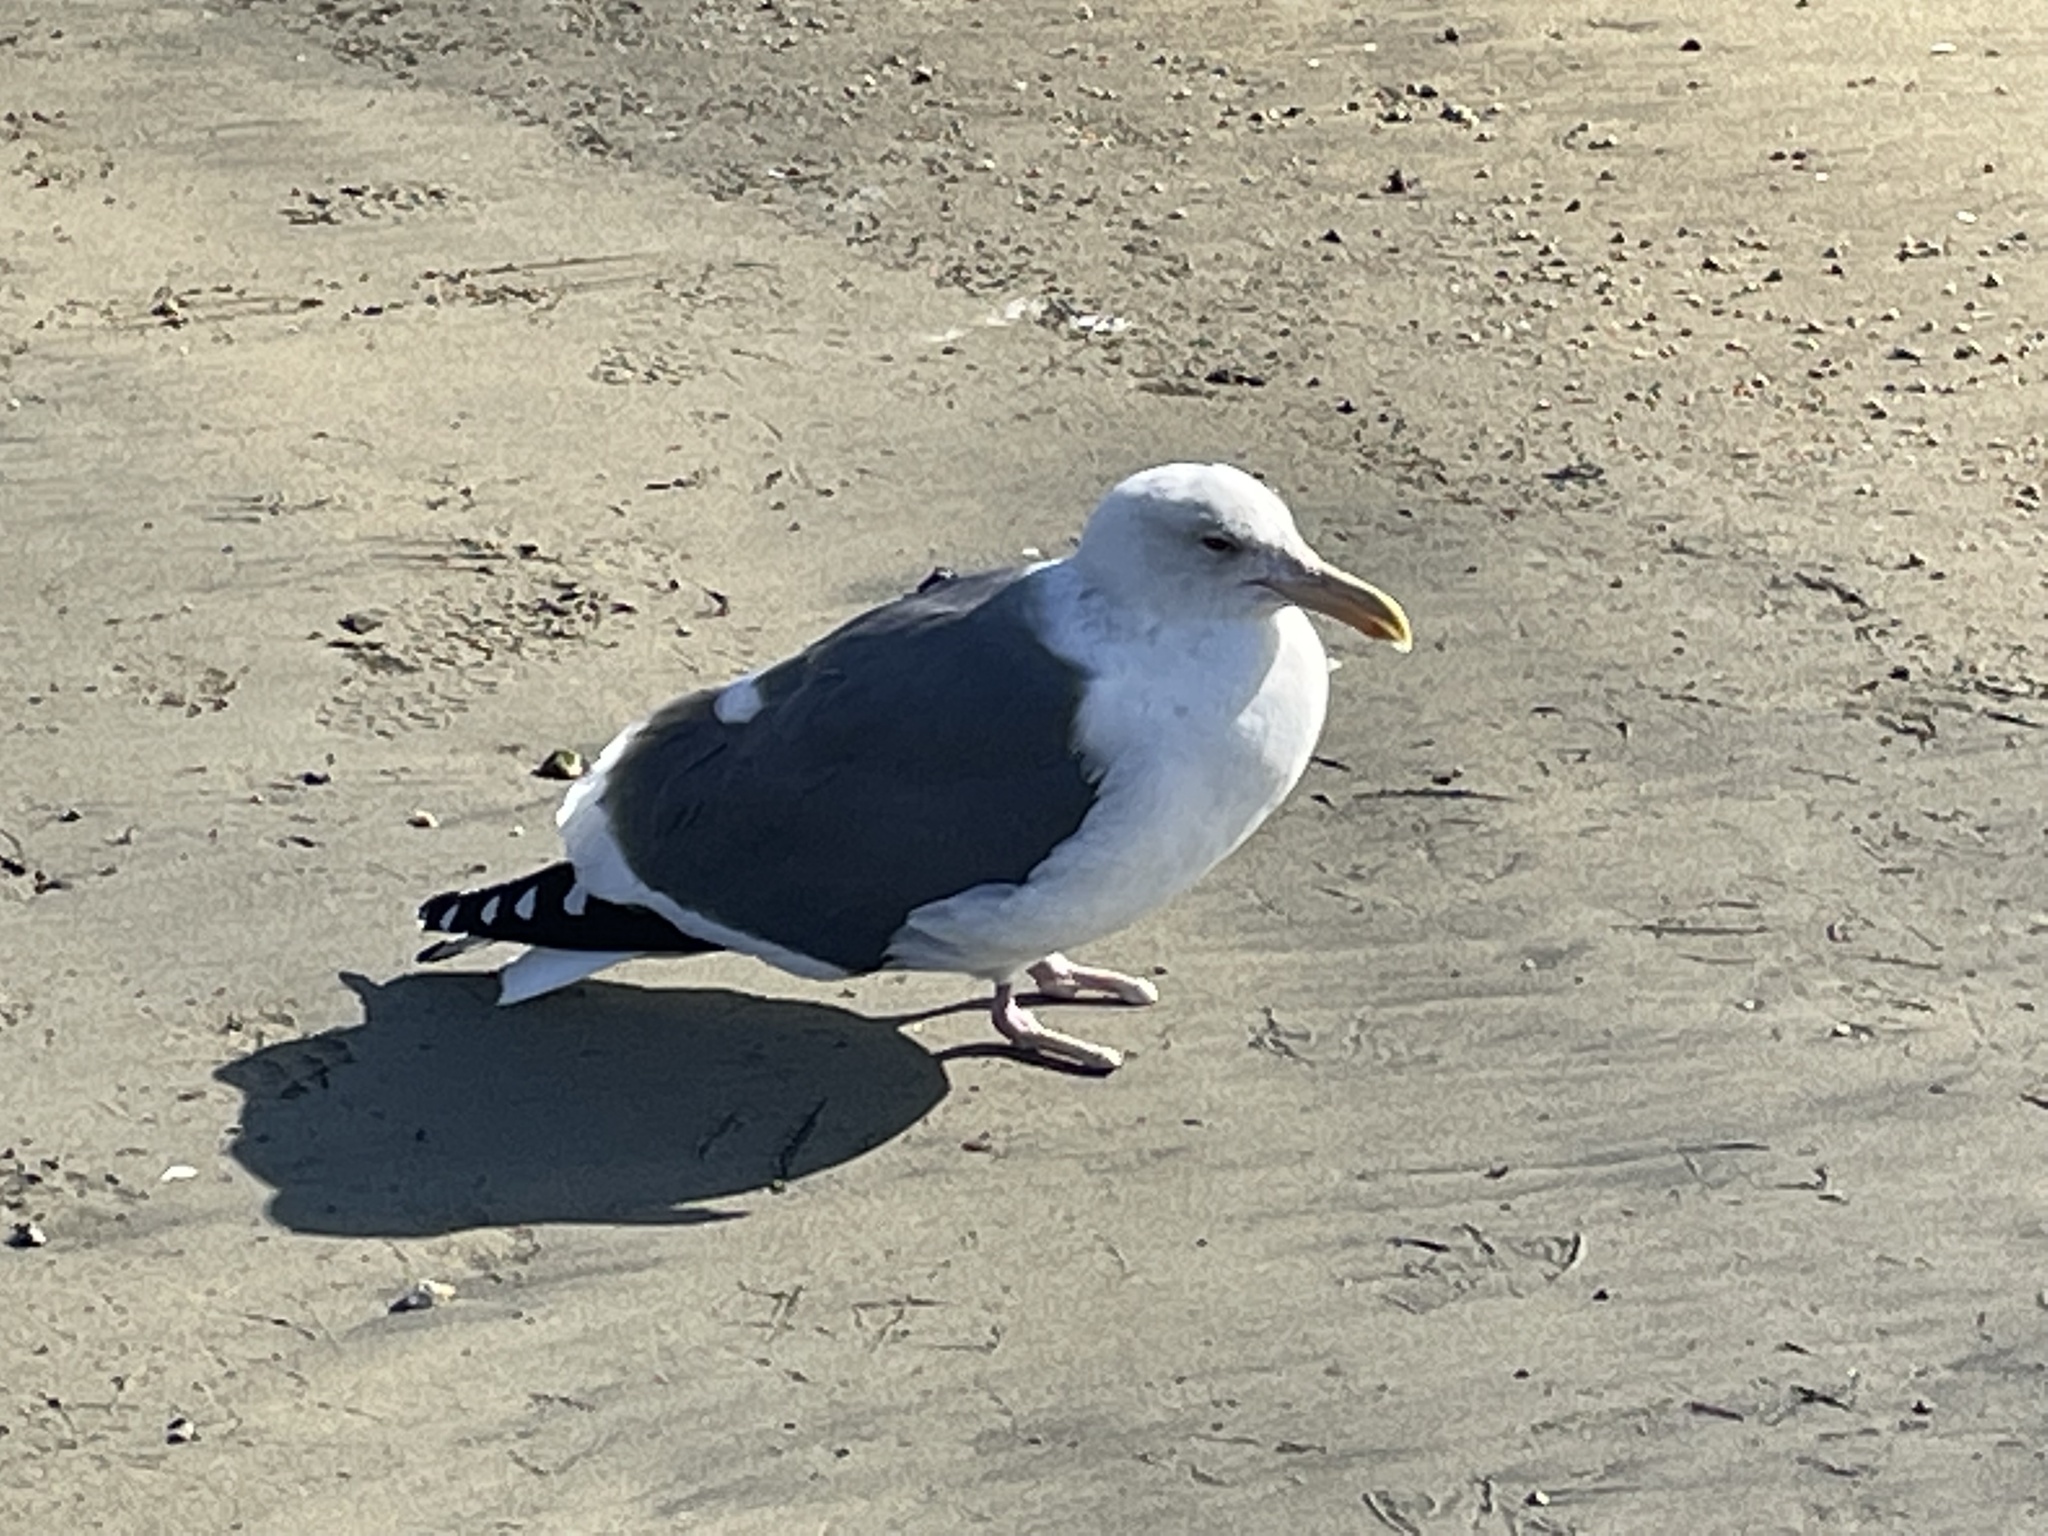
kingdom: Animalia
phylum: Chordata
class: Aves
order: Charadriiformes
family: Laridae
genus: Larus
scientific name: Larus occidentalis
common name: Western gull
